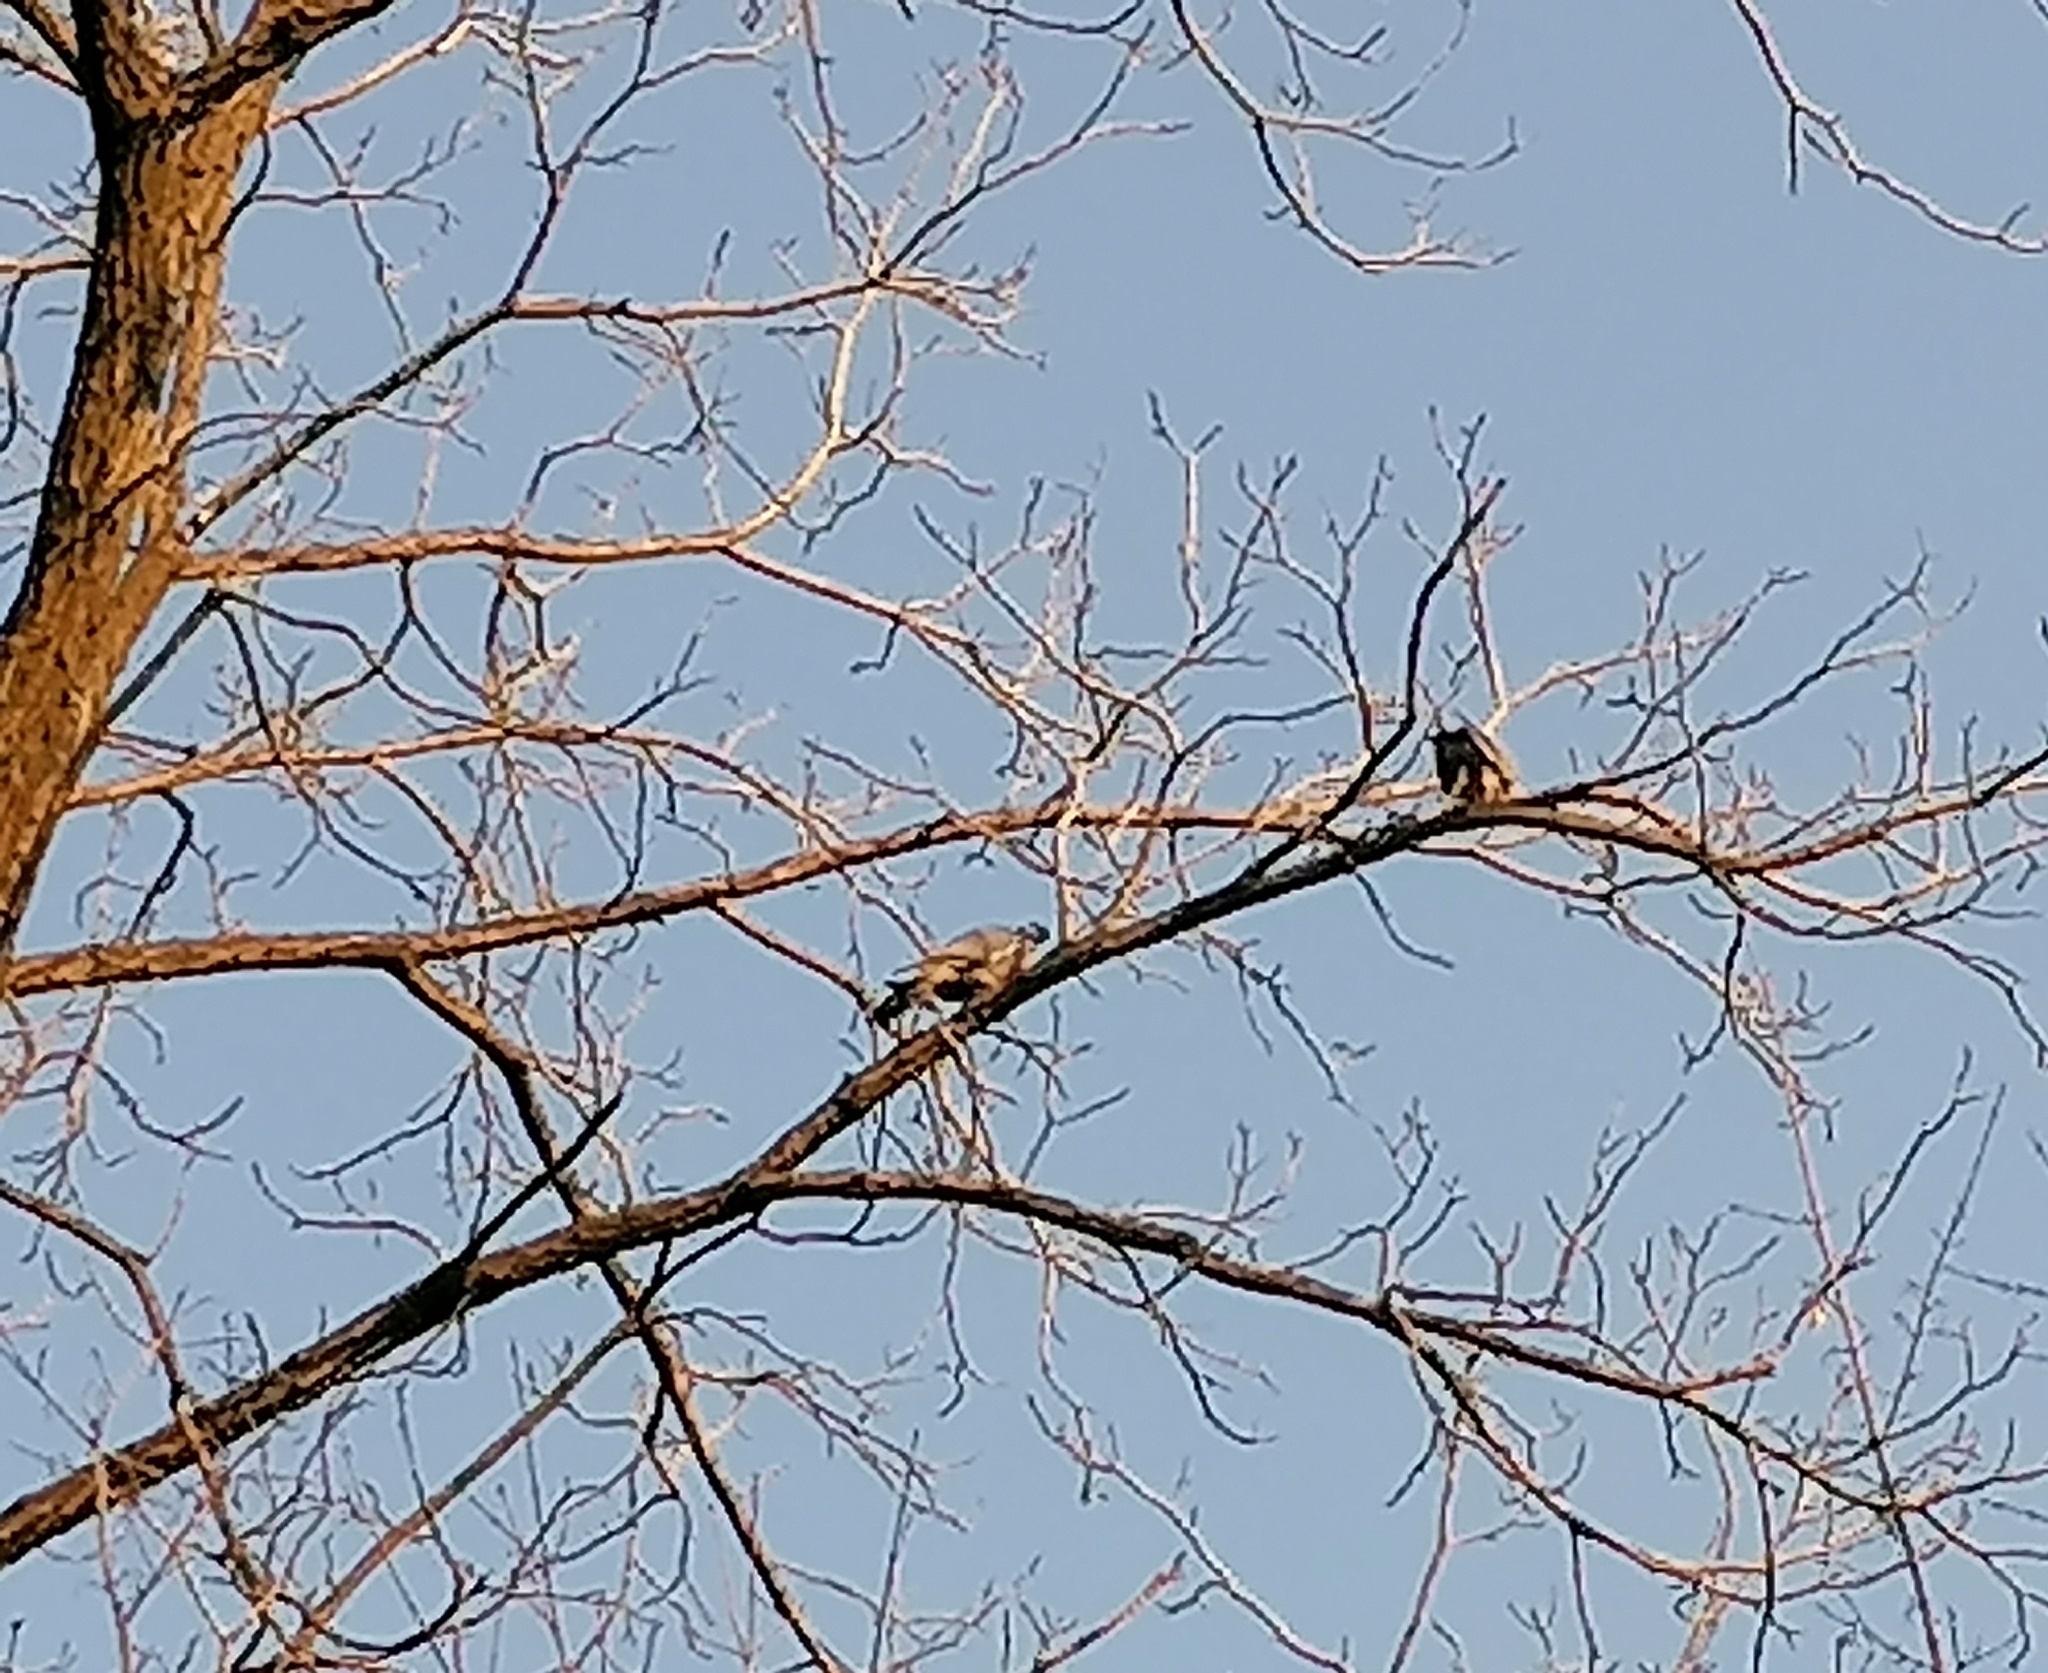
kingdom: Animalia
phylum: Chordata
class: Aves
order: Columbiformes
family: Columbidae
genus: Columba
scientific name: Columba palumbus
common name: Common wood pigeon
